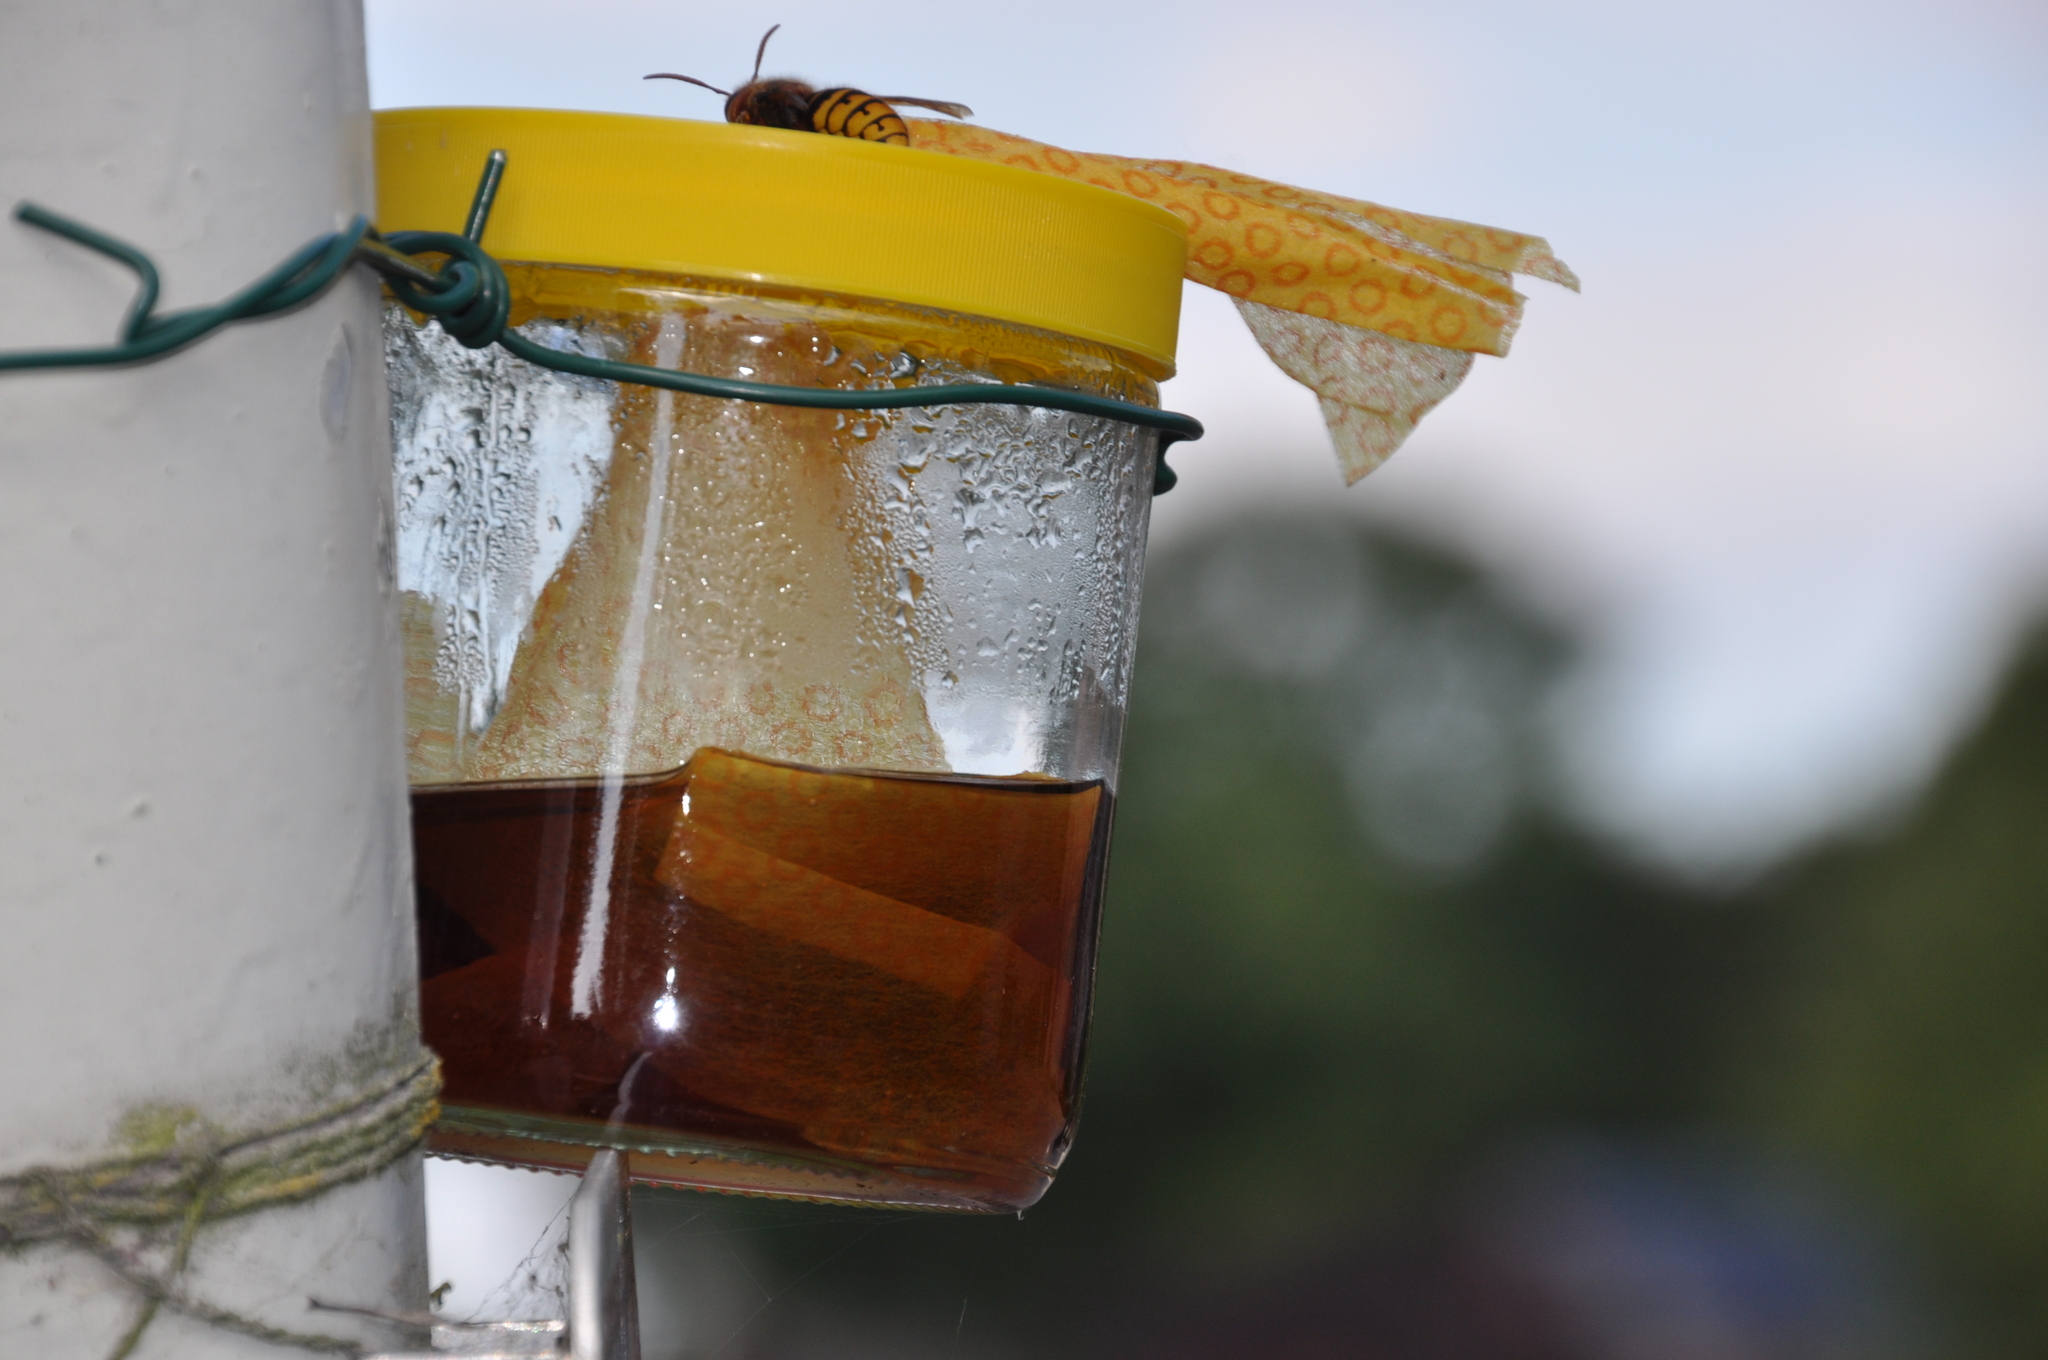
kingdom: Animalia
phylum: Arthropoda
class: Insecta
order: Hymenoptera
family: Vespidae
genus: Vespa
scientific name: Vespa crabro
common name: Hornet
